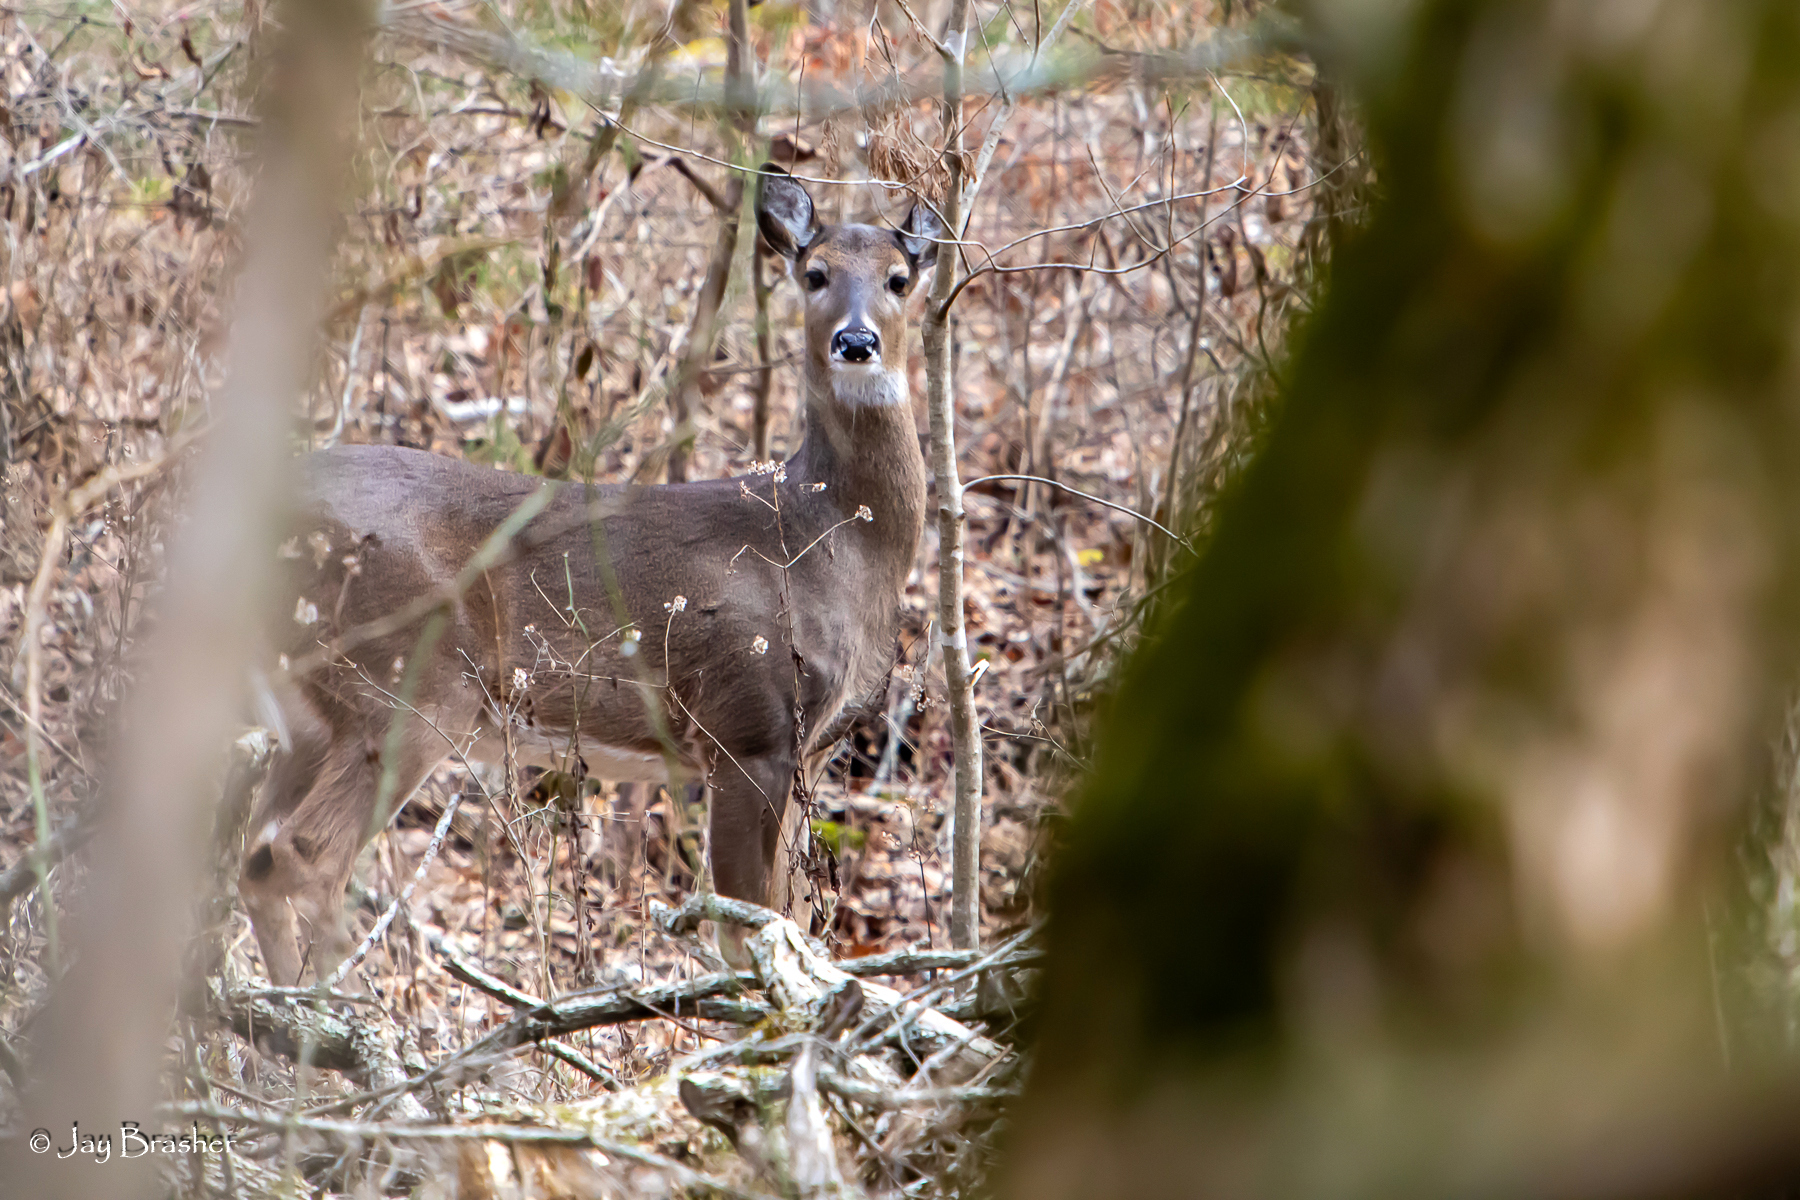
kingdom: Animalia
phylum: Chordata
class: Mammalia
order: Artiodactyla
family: Cervidae
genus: Odocoileus
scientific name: Odocoileus virginianus
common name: White-tailed deer
